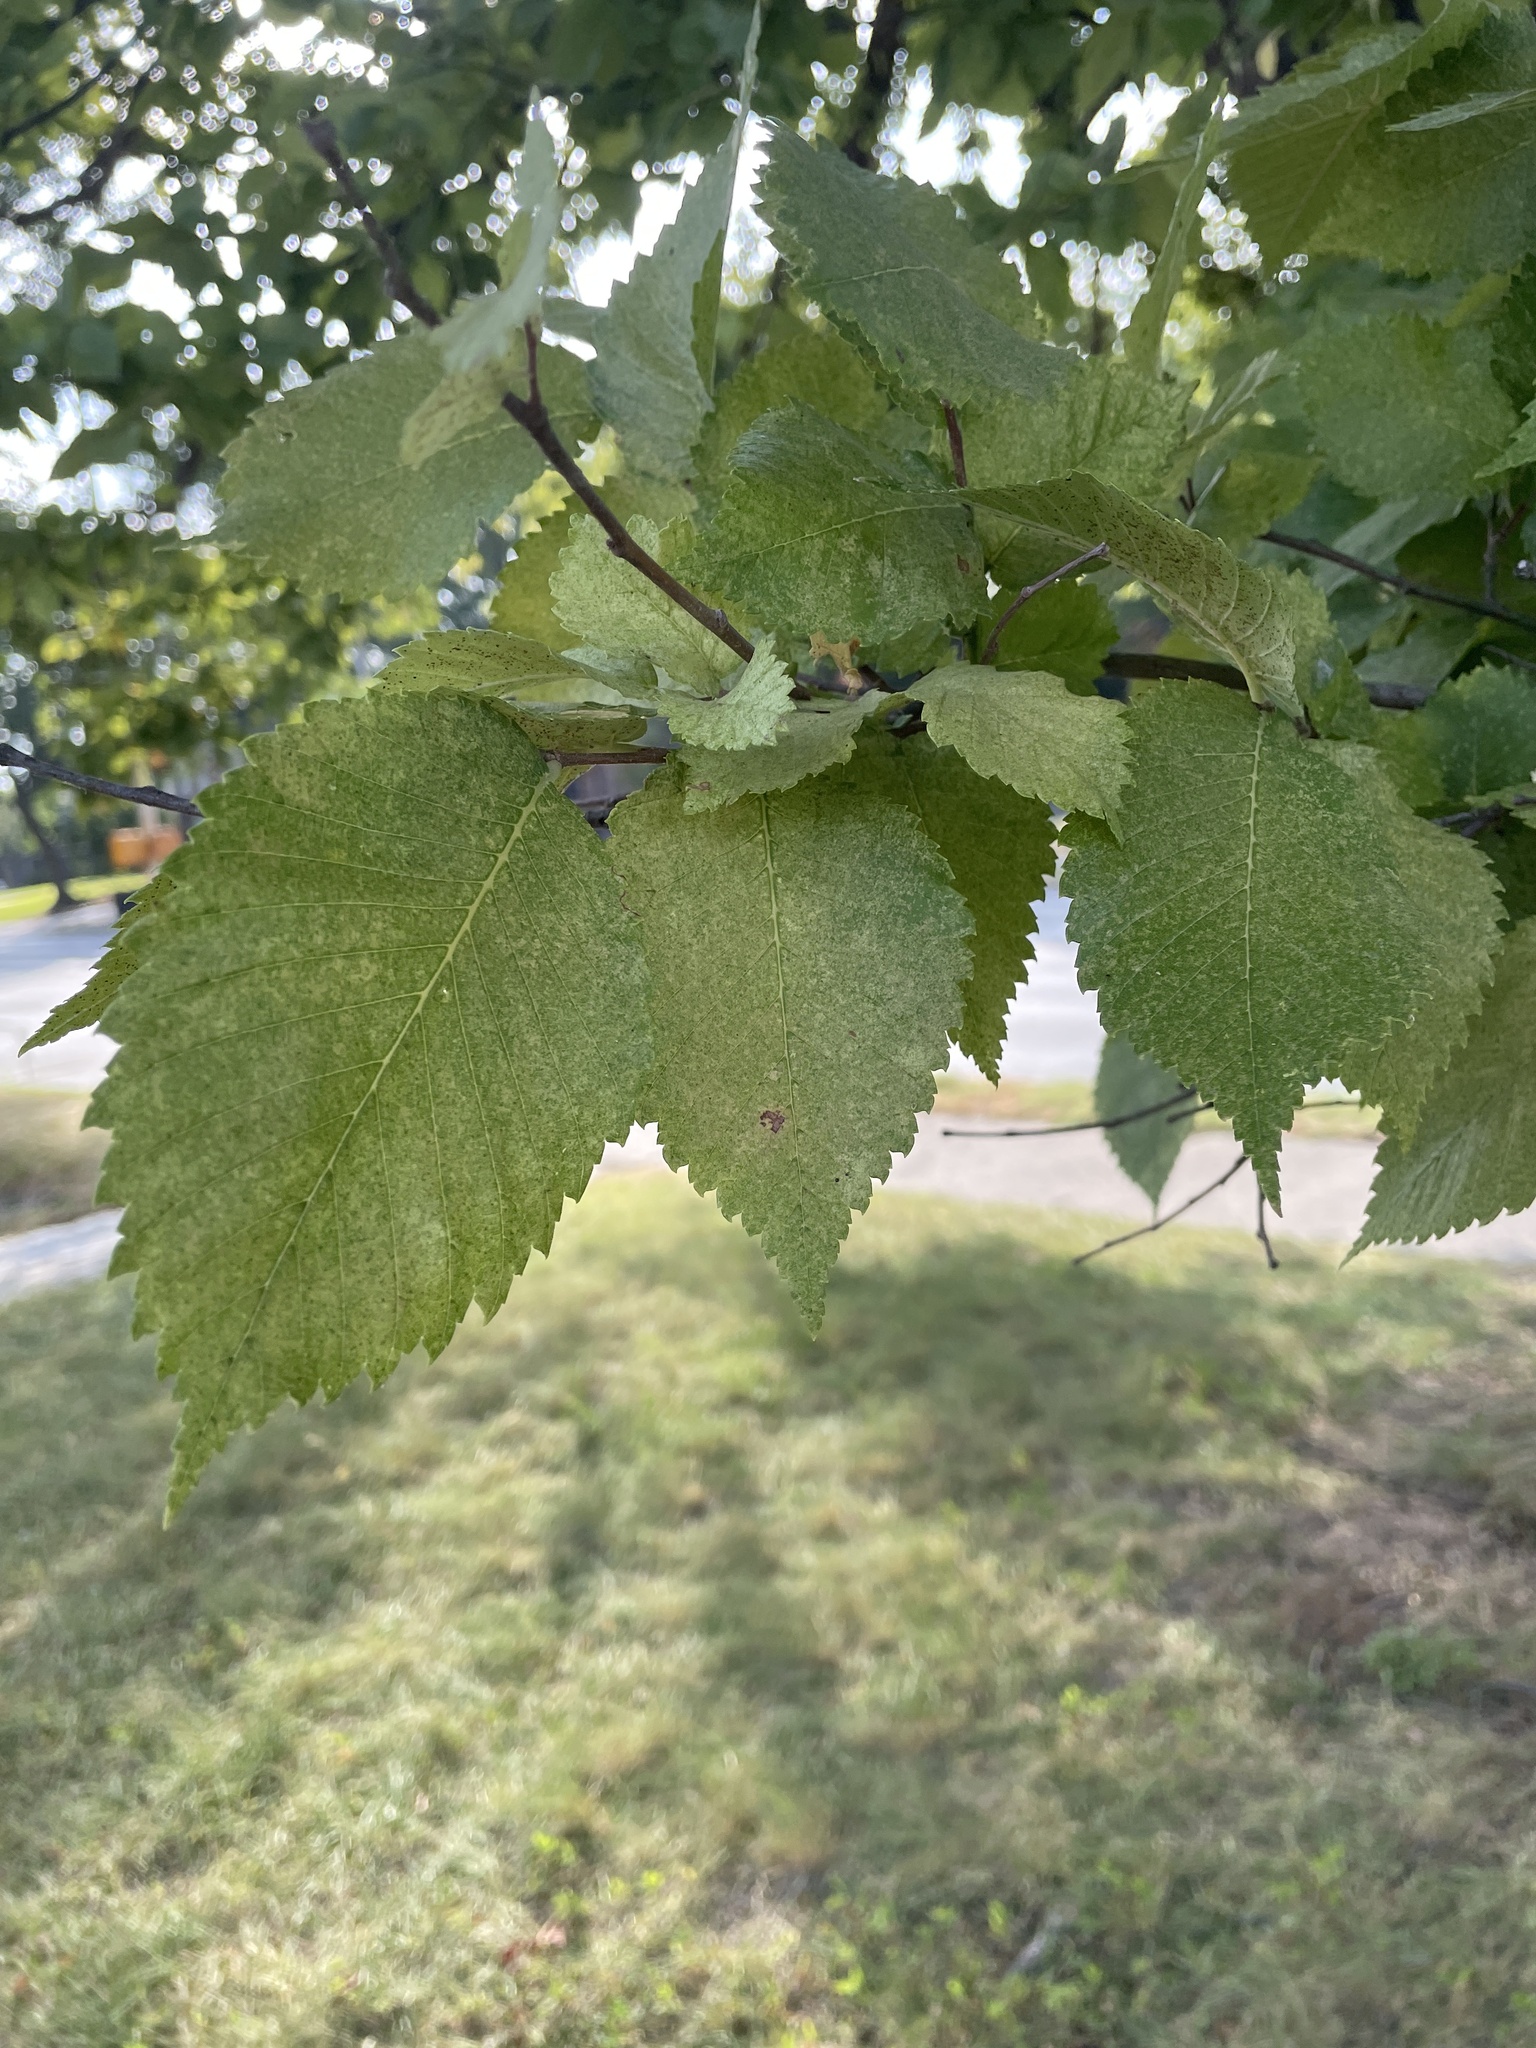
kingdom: Plantae
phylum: Tracheophyta
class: Magnoliopsida
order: Rosales
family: Ulmaceae
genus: Ulmus
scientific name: Ulmus americana
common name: American elm
